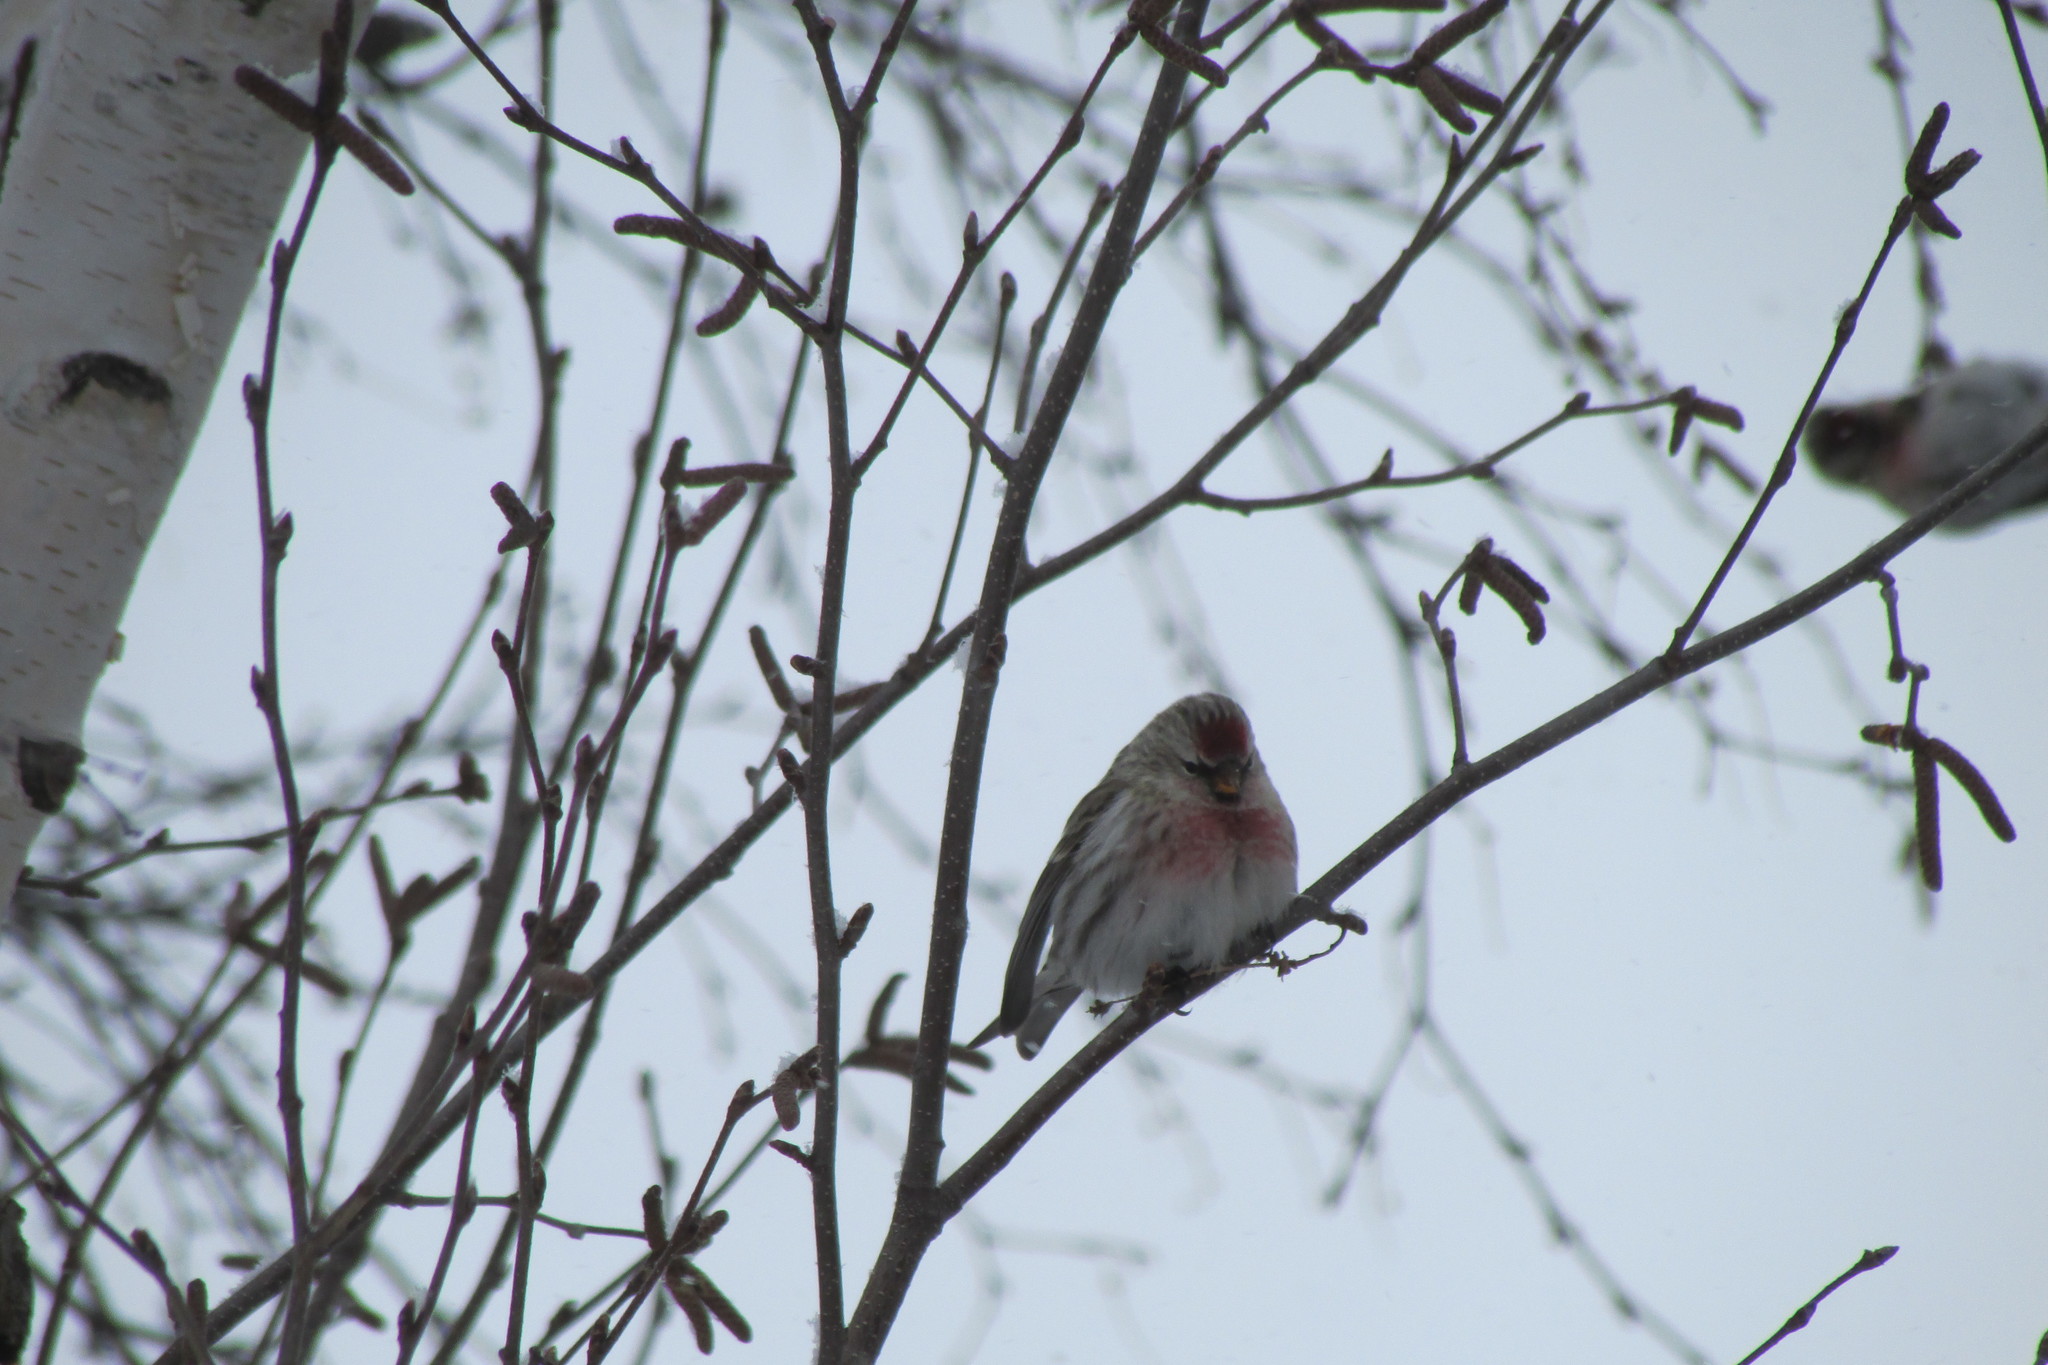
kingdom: Animalia
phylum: Chordata
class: Aves
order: Passeriformes
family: Fringillidae
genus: Acanthis
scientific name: Acanthis flammea
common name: Common redpoll
